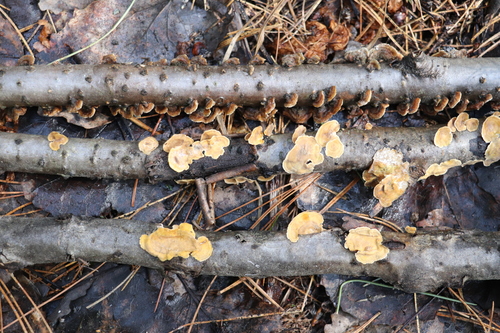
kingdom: Fungi
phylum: Basidiomycota
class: Agaricomycetes
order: Russulales
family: Stereaceae
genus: Stereum
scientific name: Stereum hirsutum
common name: Hairy curtain crust
